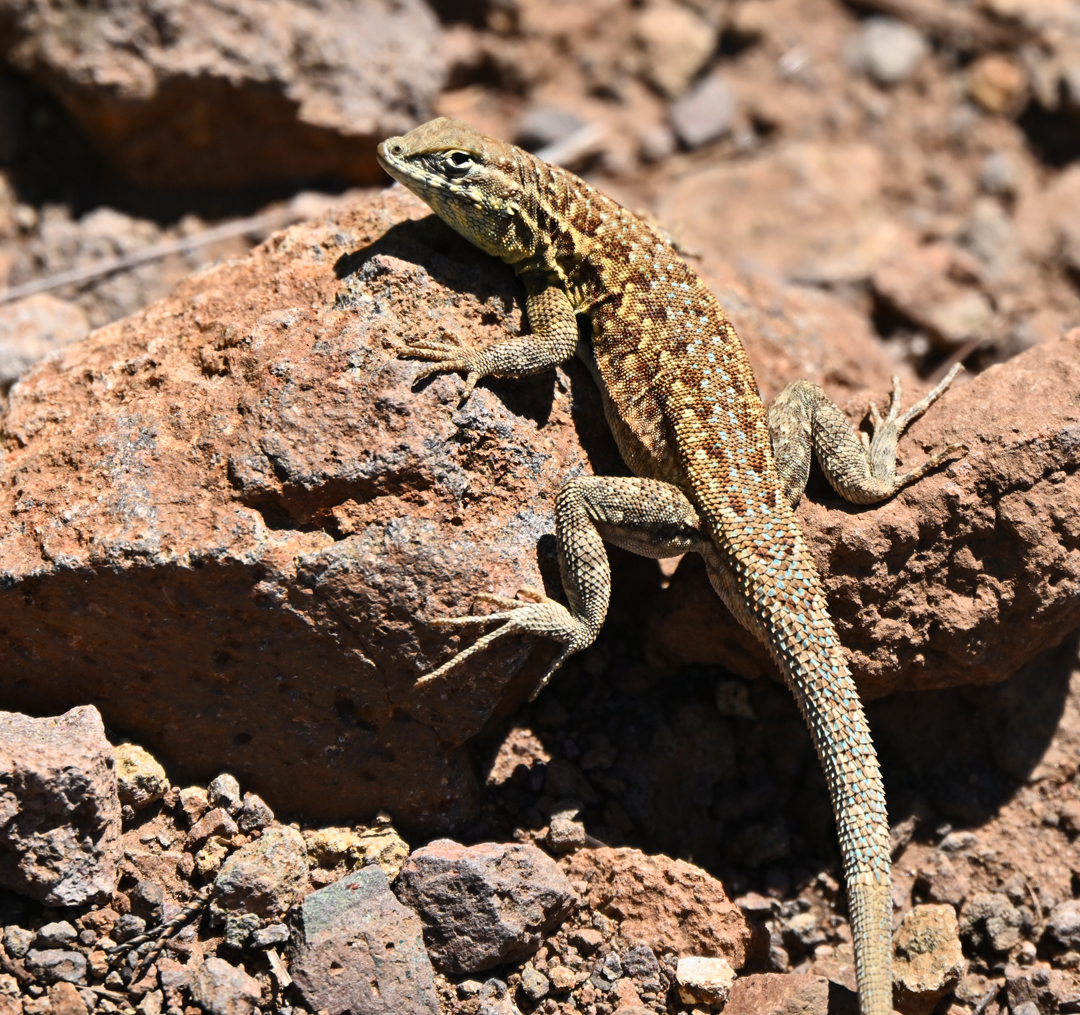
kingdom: Animalia
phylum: Chordata
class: Squamata
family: Phrynosomatidae
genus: Uta
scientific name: Uta stansburiana
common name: Side-blotched lizard
